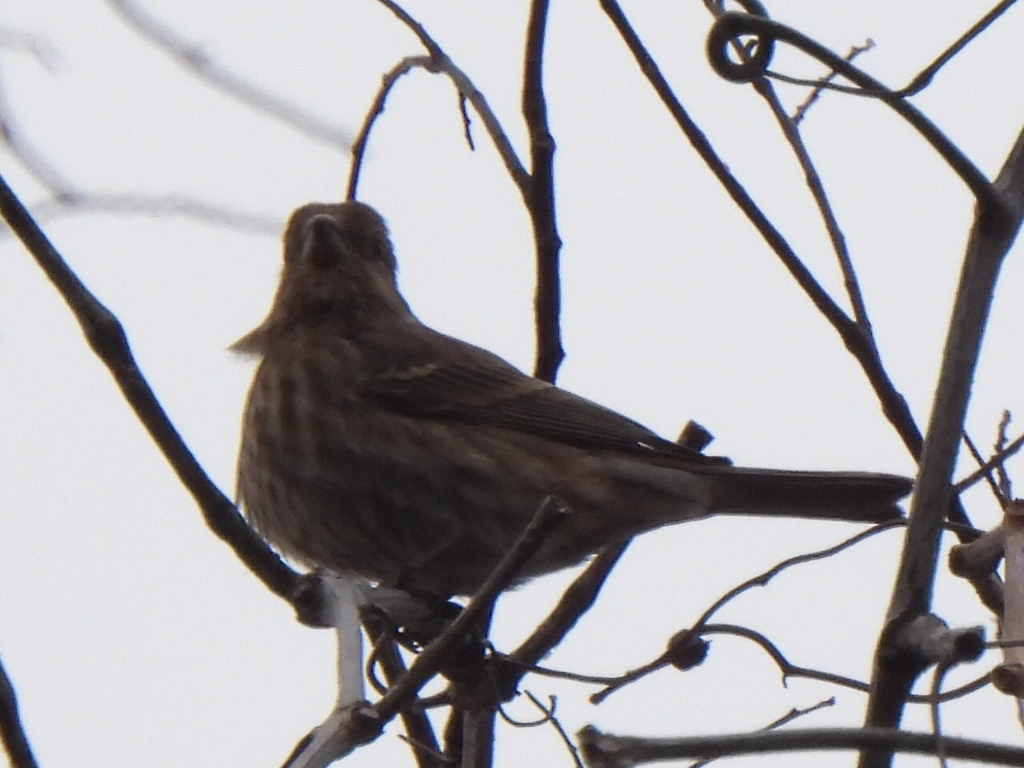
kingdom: Animalia
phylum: Chordata
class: Aves
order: Passeriformes
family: Fringillidae
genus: Haemorhous
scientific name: Haemorhous mexicanus
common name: House finch
